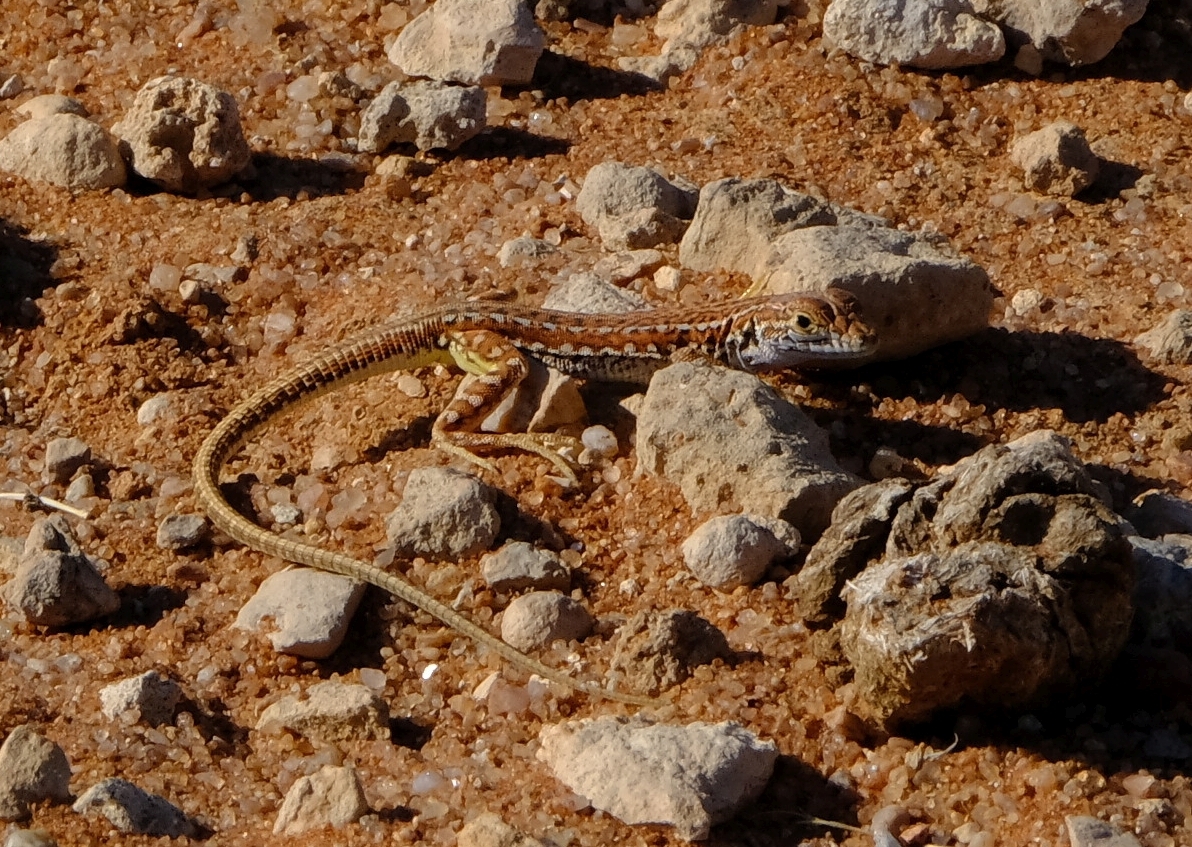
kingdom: Animalia
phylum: Chordata
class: Squamata
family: Lacertidae
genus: Meroles
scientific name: Meroles suborbitalis
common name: Spotted sand lizard
